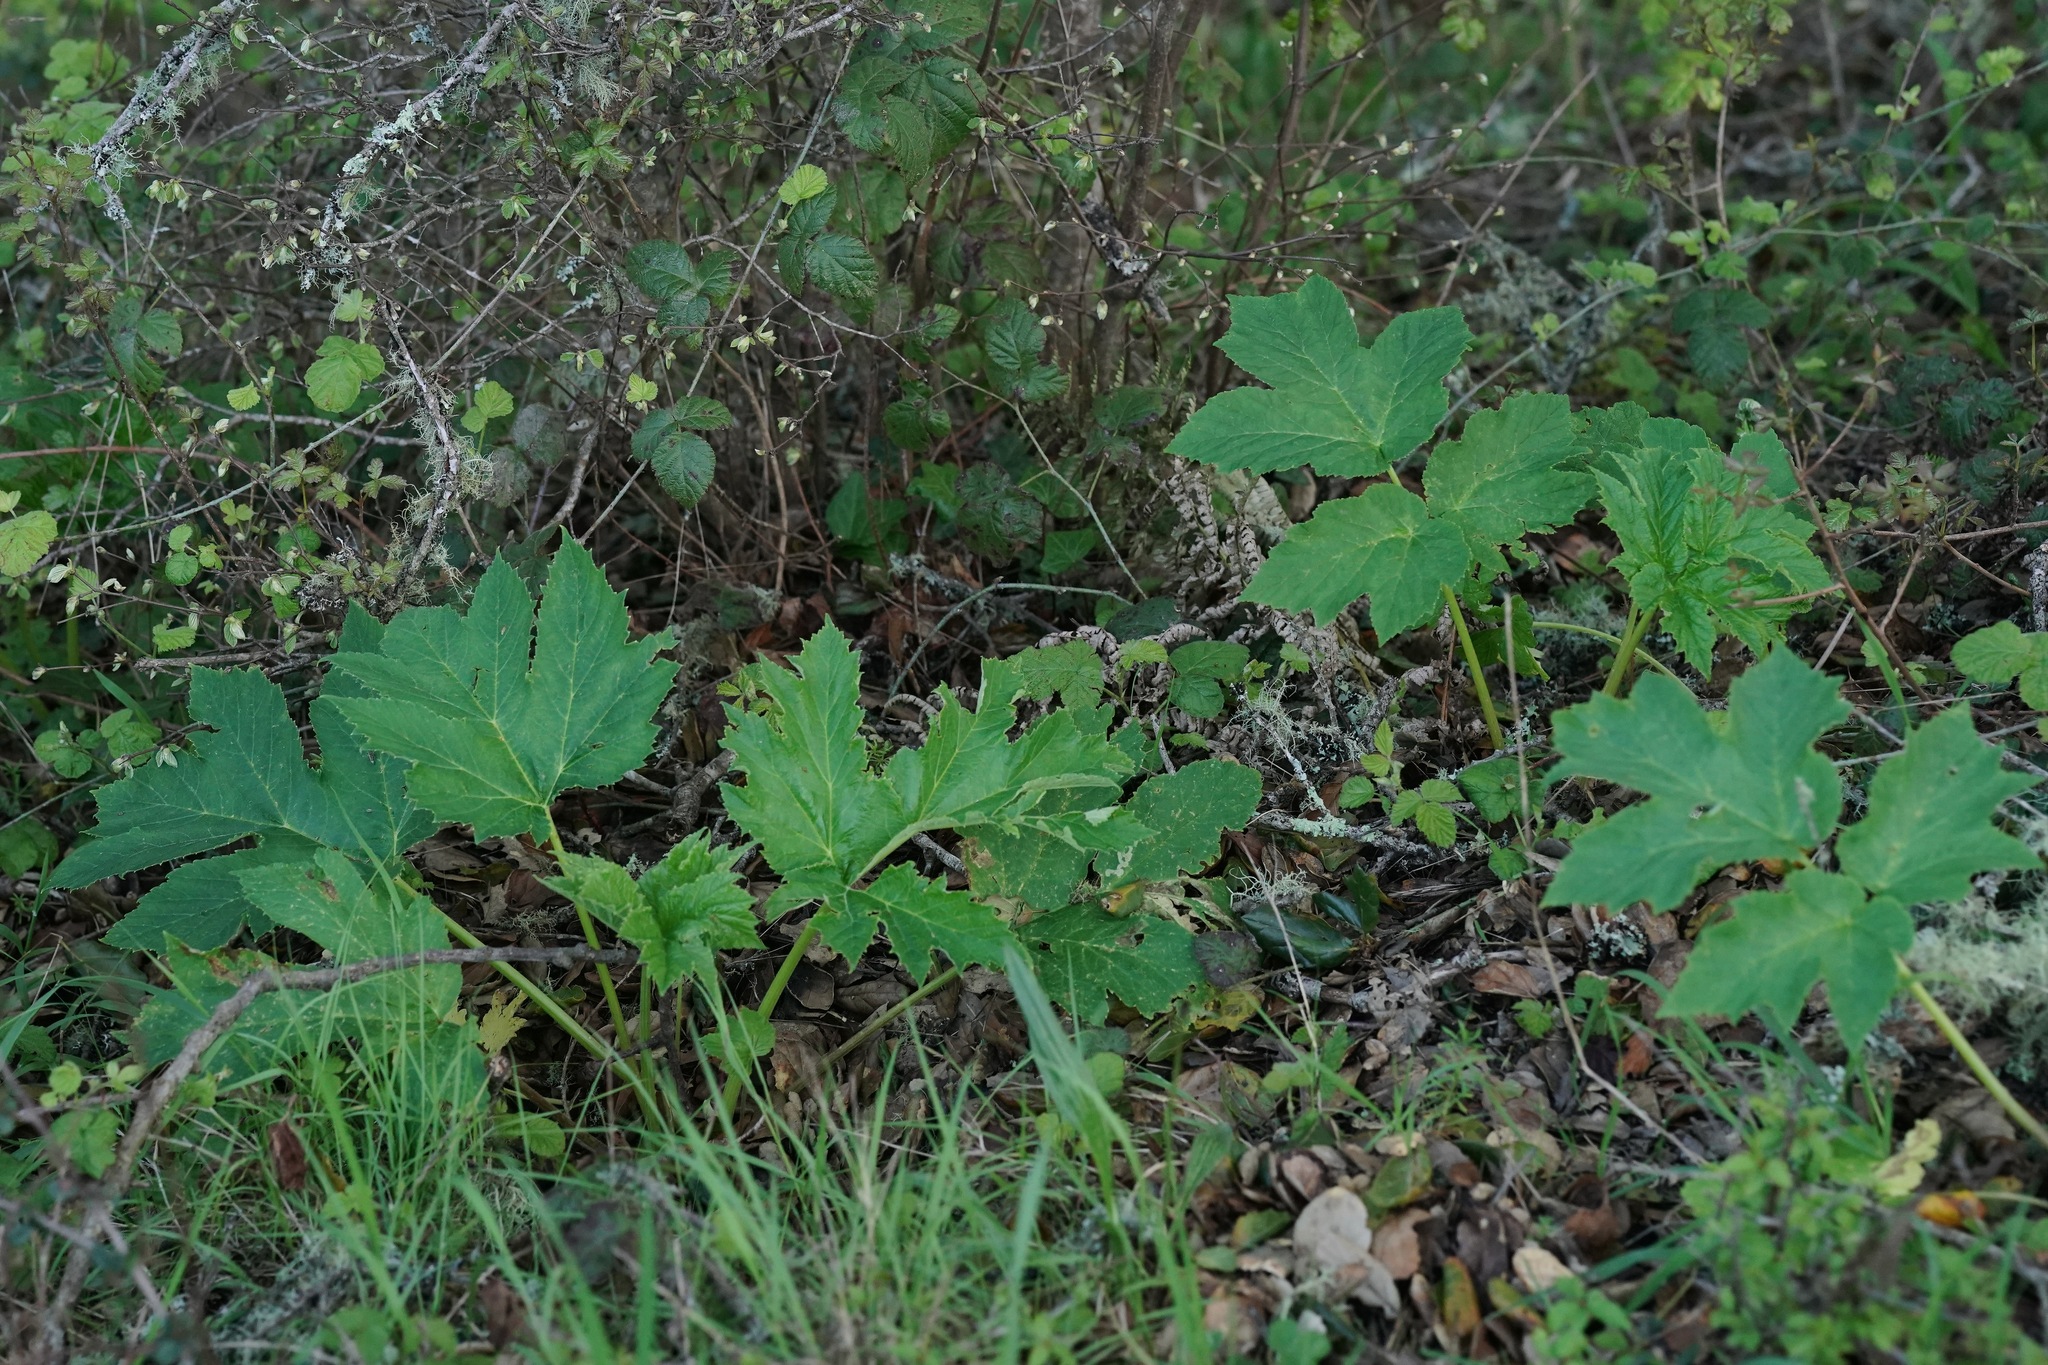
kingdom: Plantae
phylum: Tracheophyta
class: Magnoliopsida
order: Apiales
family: Apiaceae
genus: Heracleum
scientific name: Heracleum maximum
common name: American cow parsnip
